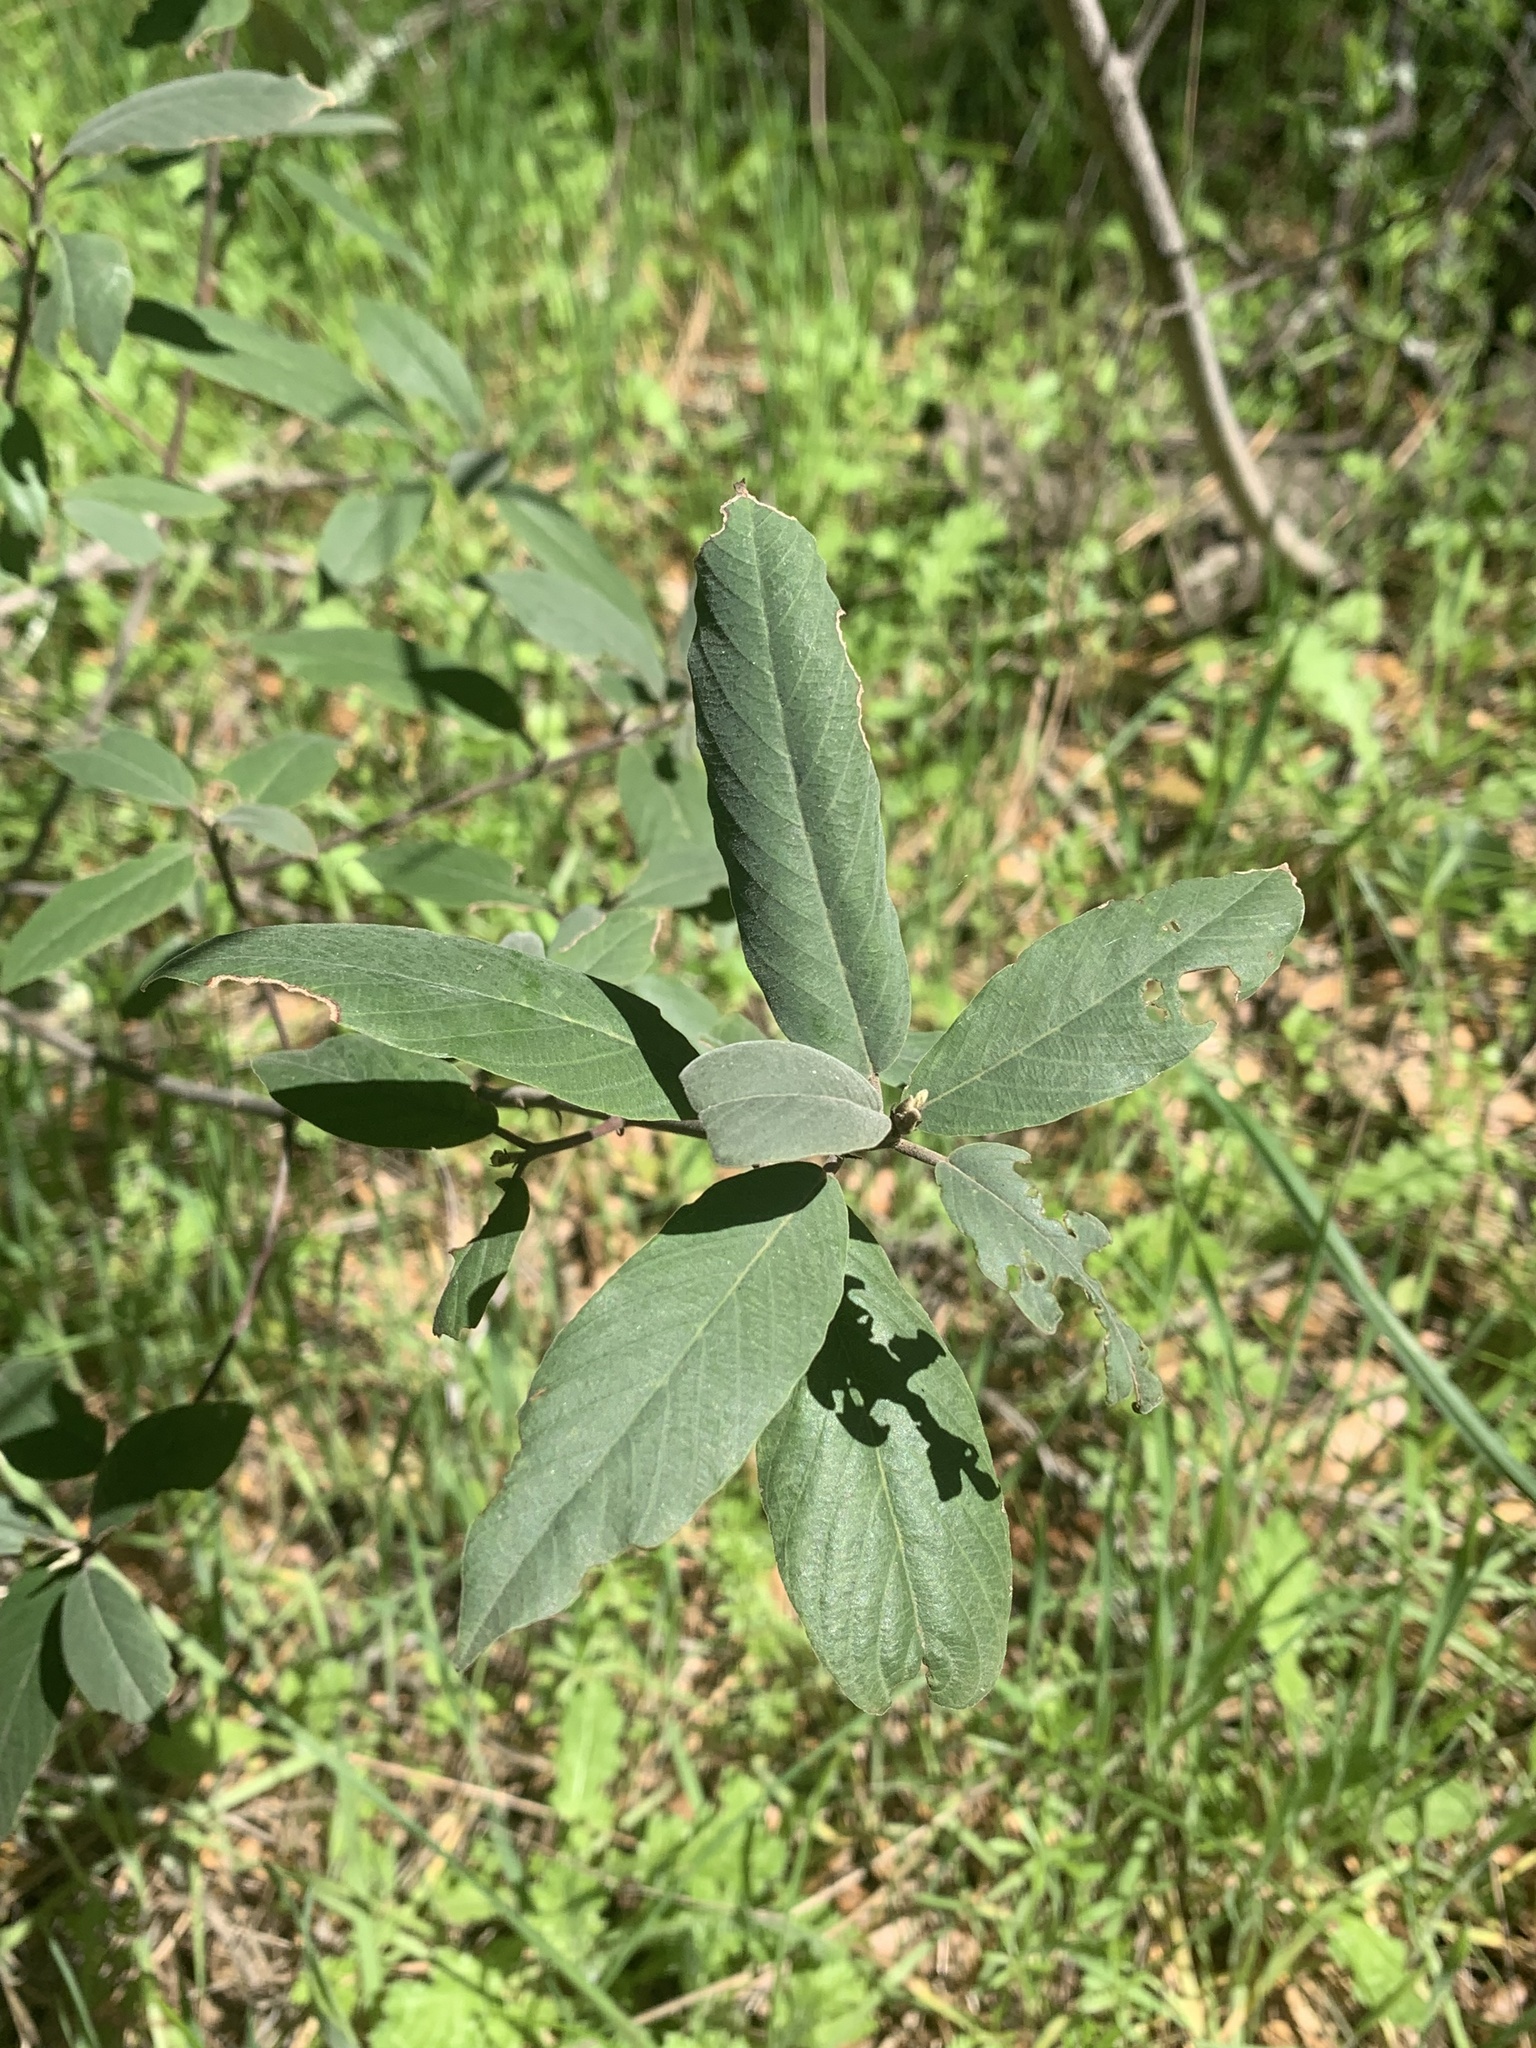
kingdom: Plantae
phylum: Tracheophyta
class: Magnoliopsida
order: Rosales
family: Rhamnaceae
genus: Frangula
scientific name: Frangula californica
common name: California buckthorn
